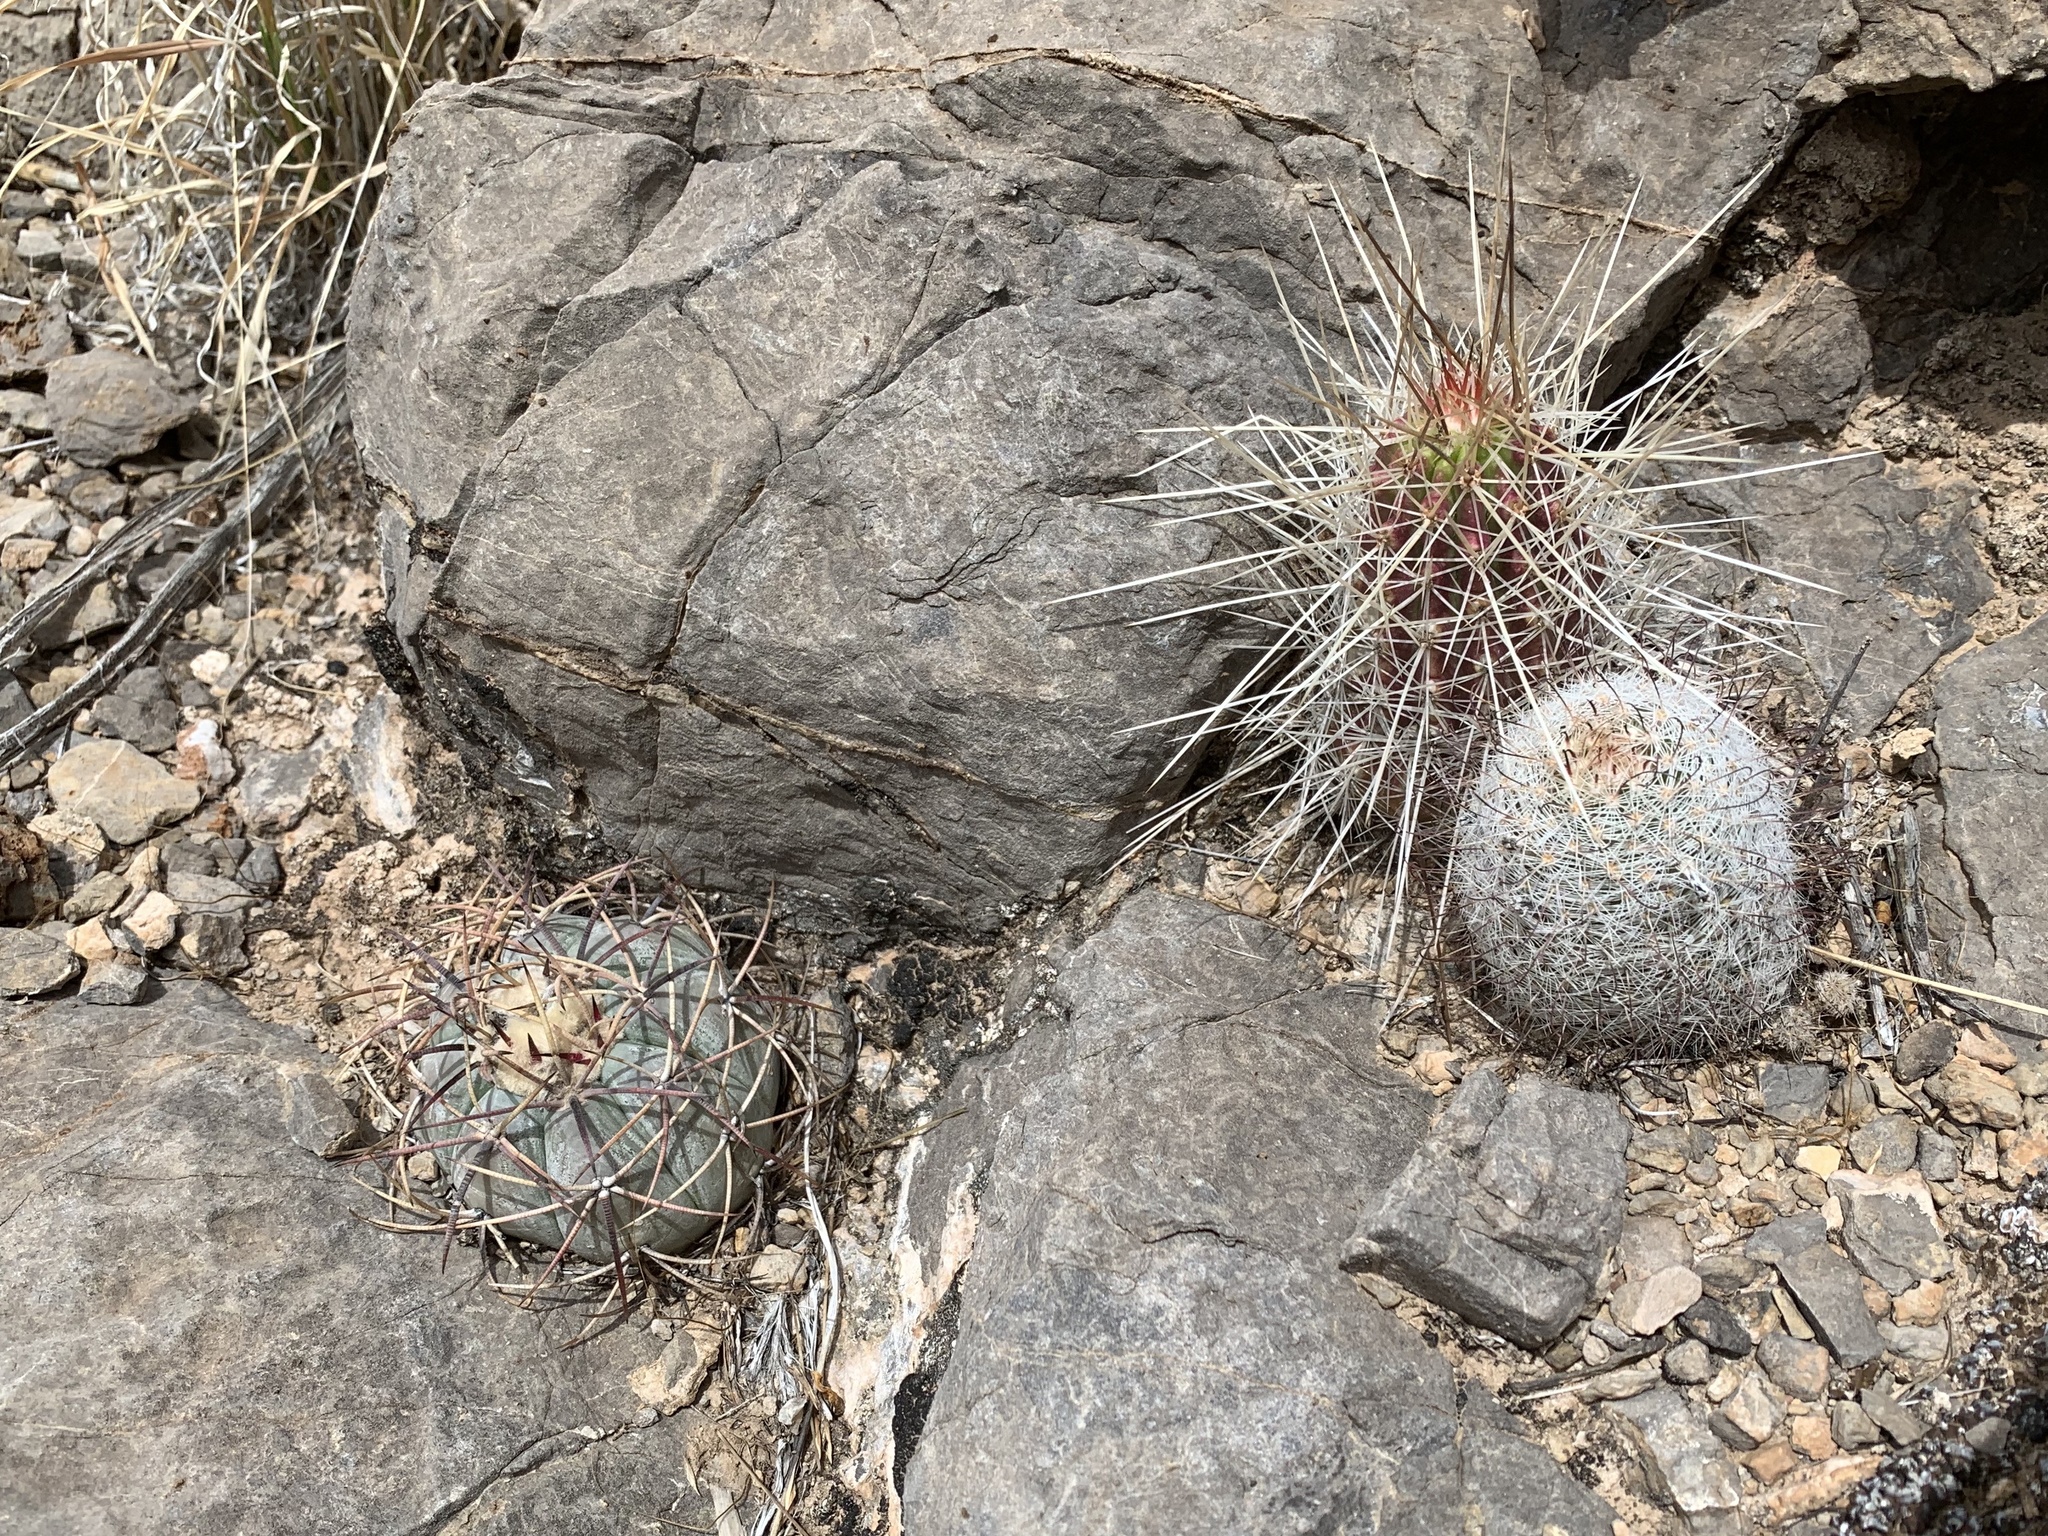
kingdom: Plantae
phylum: Tracheophyta
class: Magnoliopsida
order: Caryophyllales
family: Cactaceae
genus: Echinocactus
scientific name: Echinocactus horizonthalonius
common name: Devilshead
